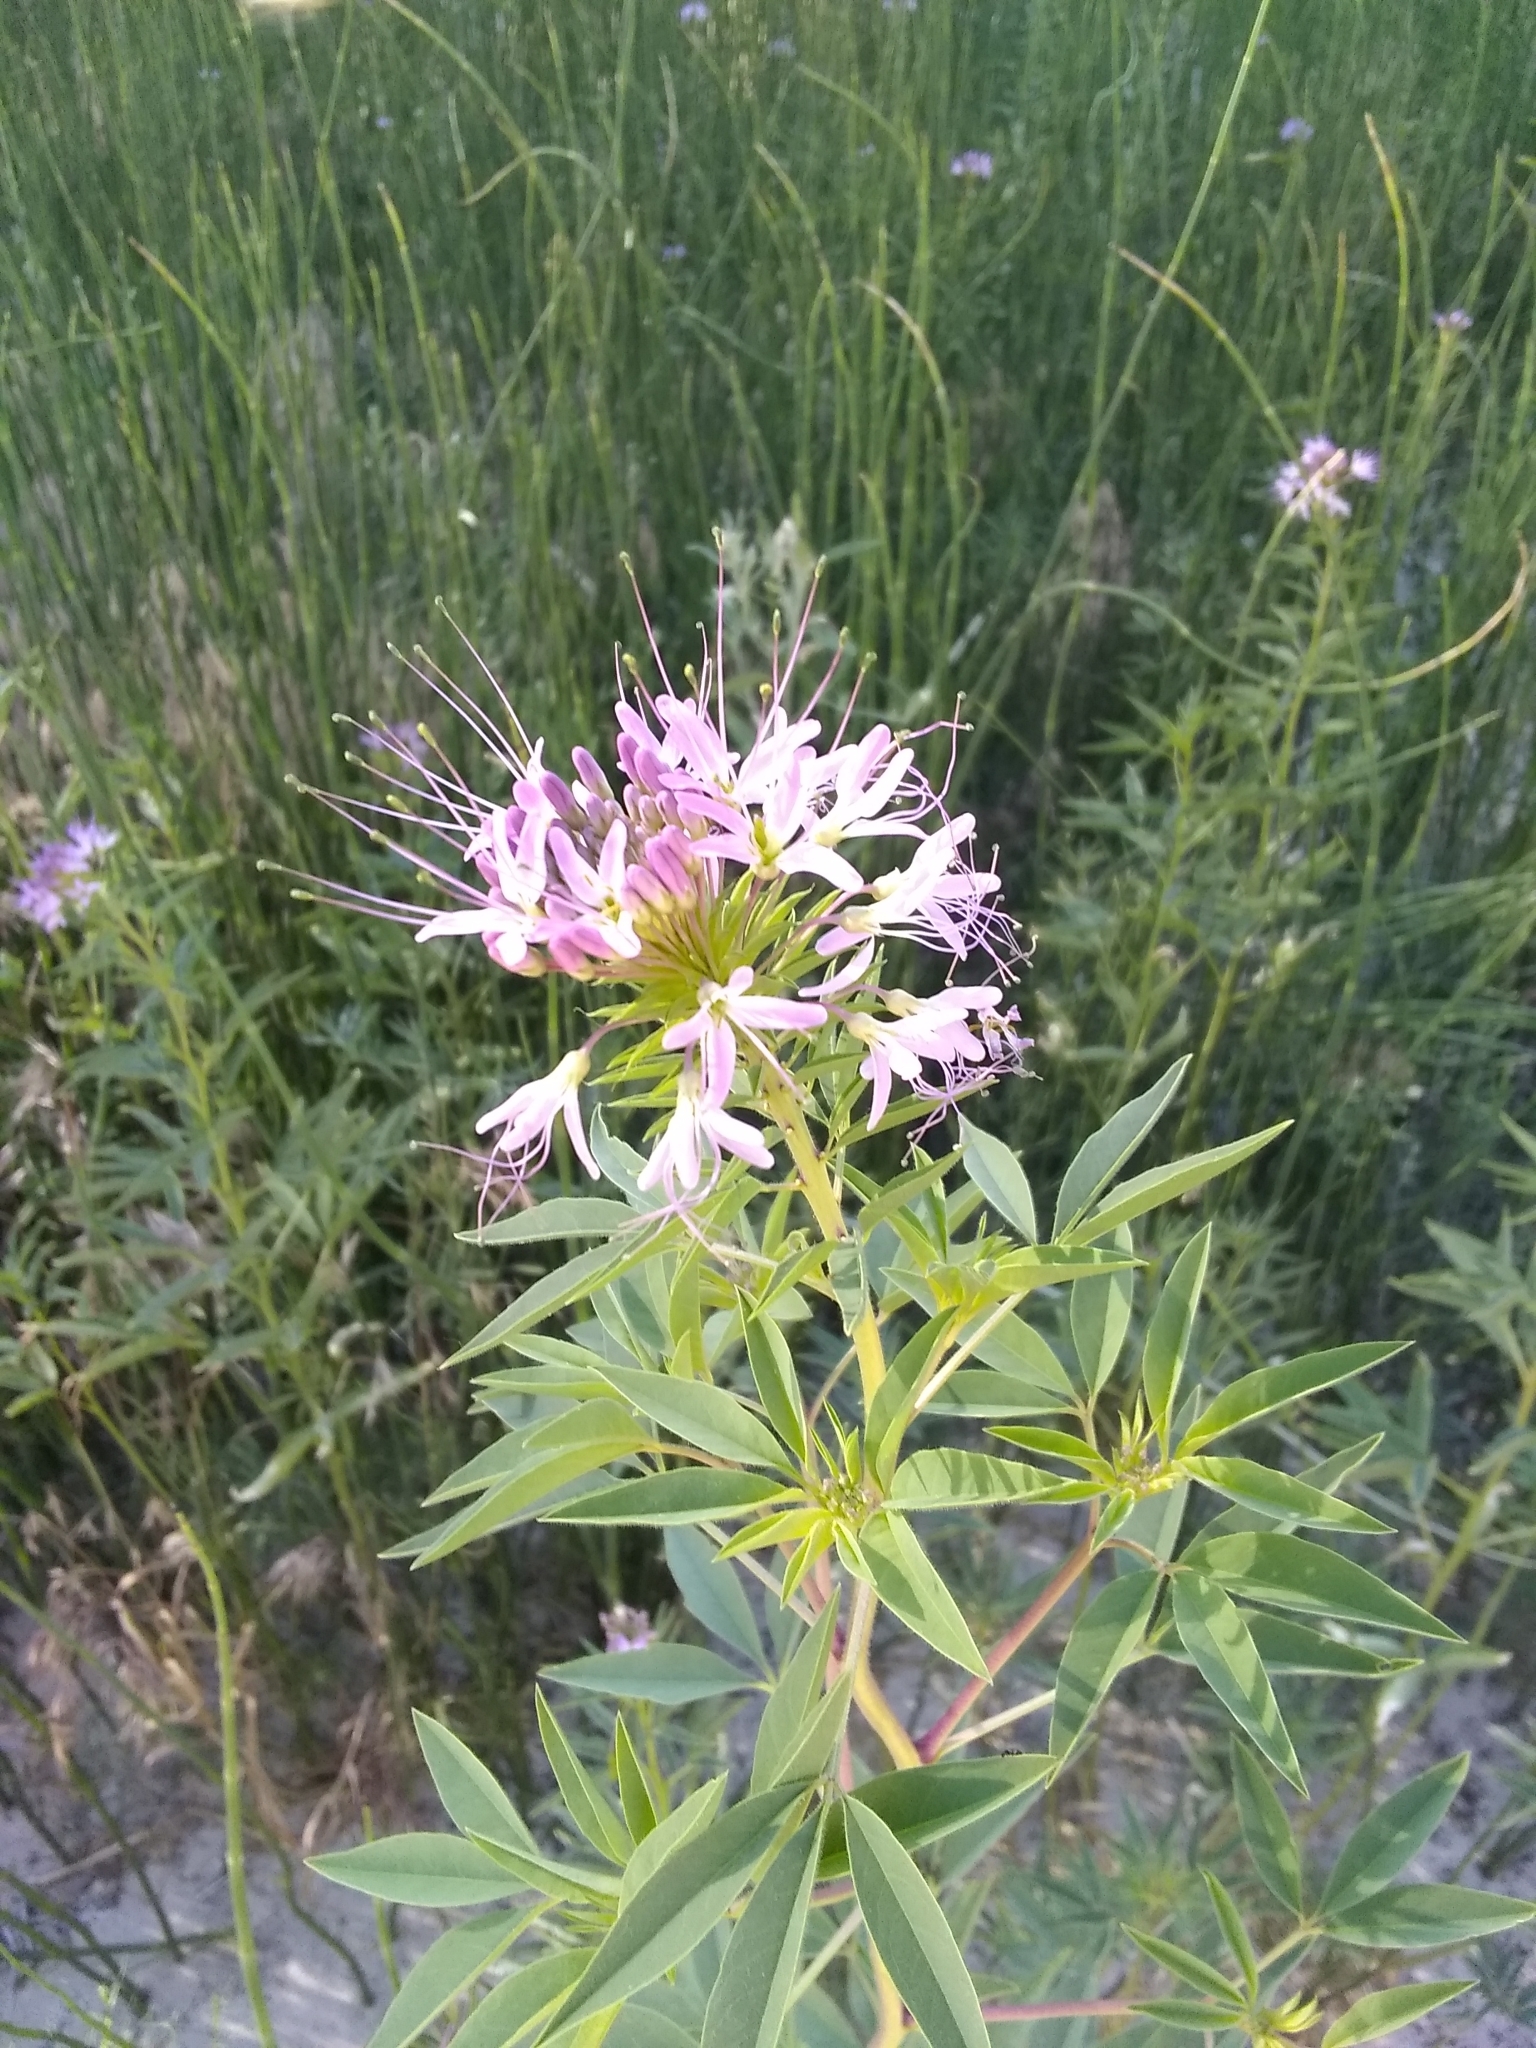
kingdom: Plantae
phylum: Tracheophyta
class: Magnoliopsida
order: Brassicales
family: Cleomaceae
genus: Cleomella
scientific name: Cleomella serrulata
